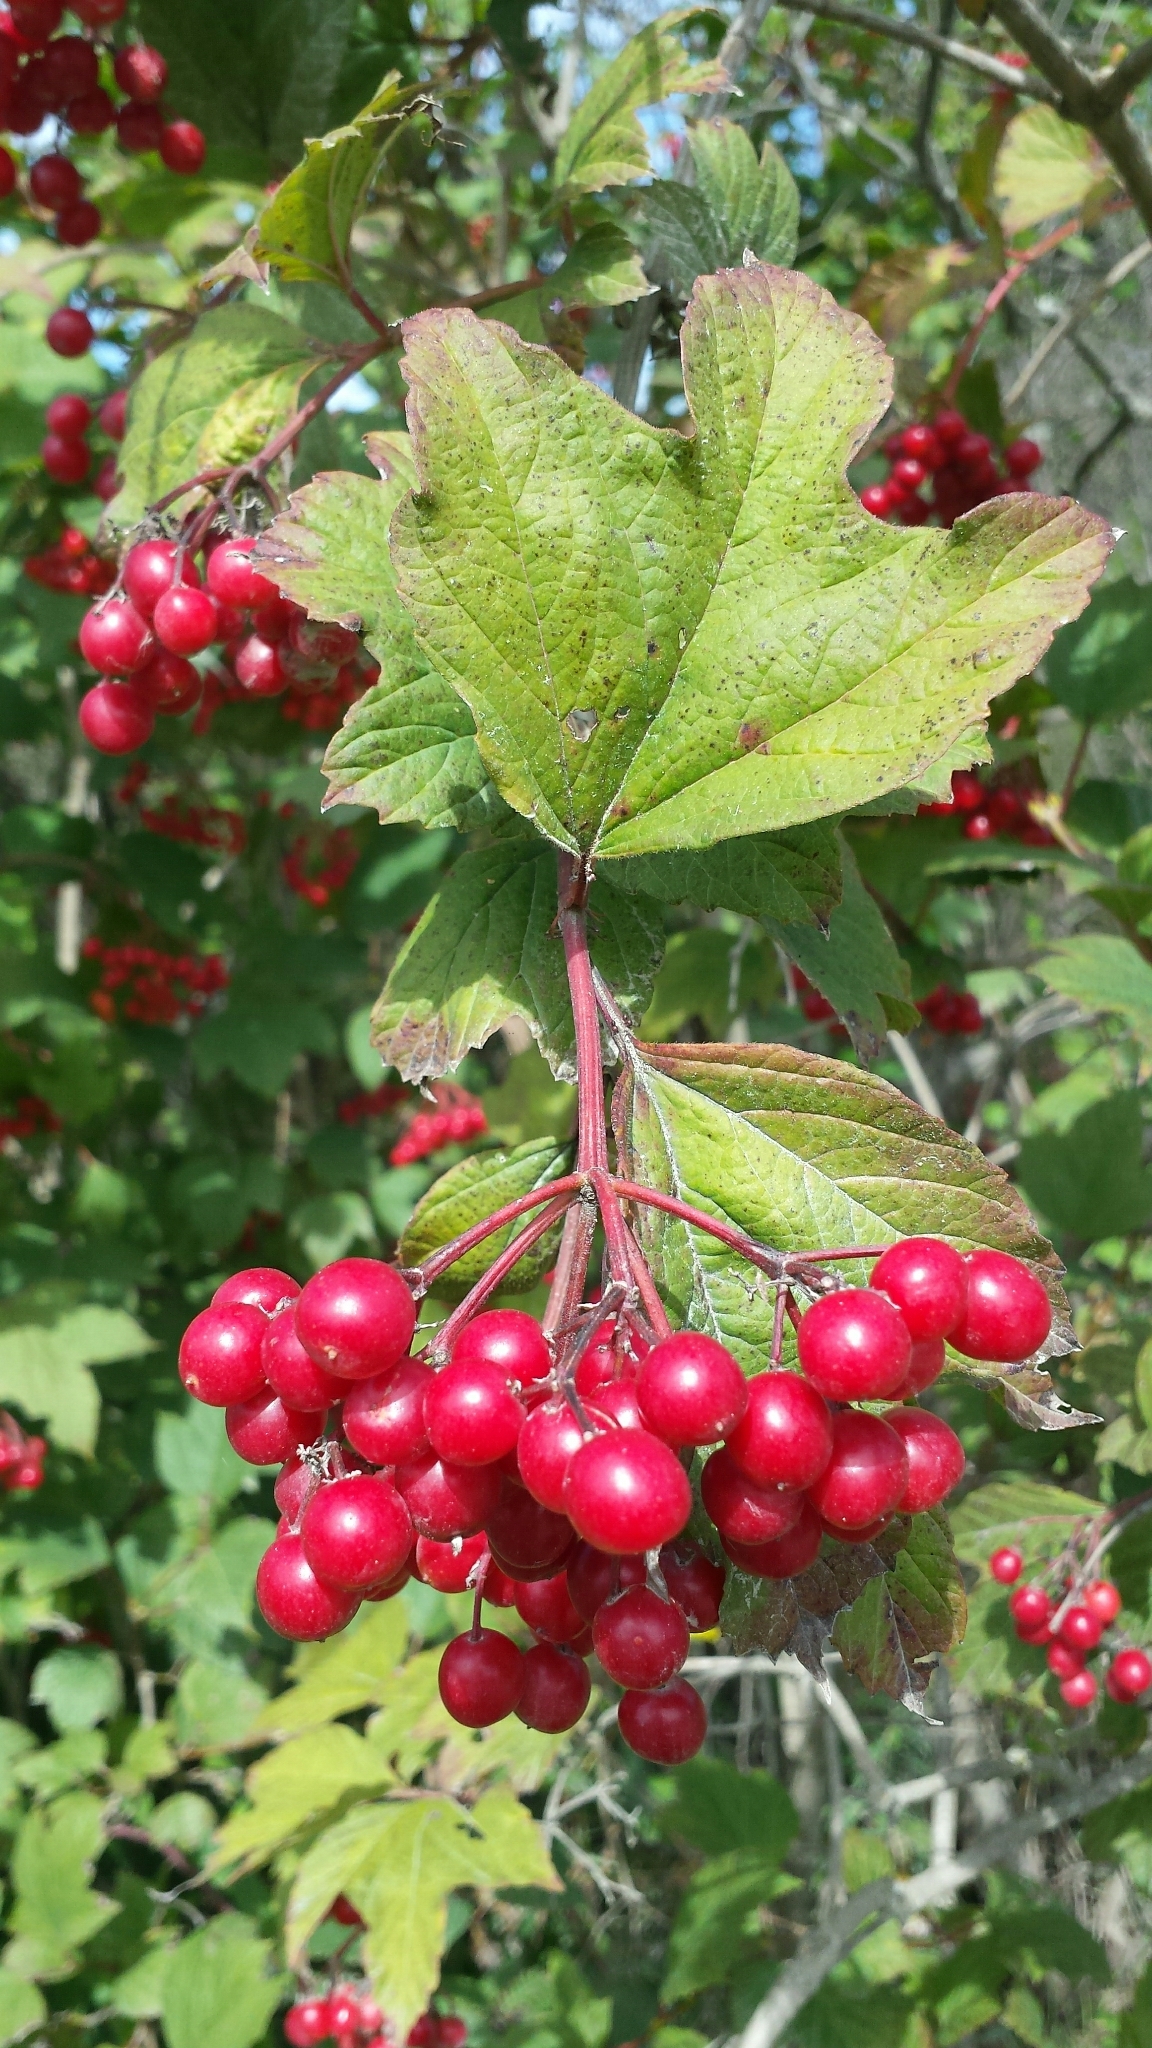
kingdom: Plantae
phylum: Tracheophyta
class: Magnoliopsida
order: Dipsacales
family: Viburnaceae
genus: Viburnum
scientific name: Viburnum opulus
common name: Guelder-rose
